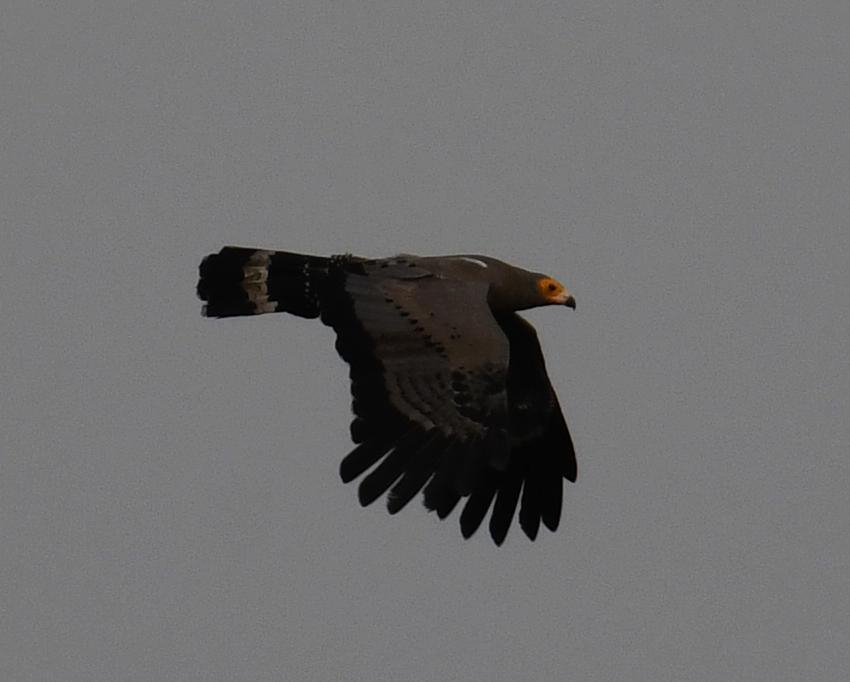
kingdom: Animalia
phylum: Chordata
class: Aves
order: Accipitriformes
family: Accipitridae
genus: Polyboroides
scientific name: Polyboroides typus
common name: African harrier-hawk
